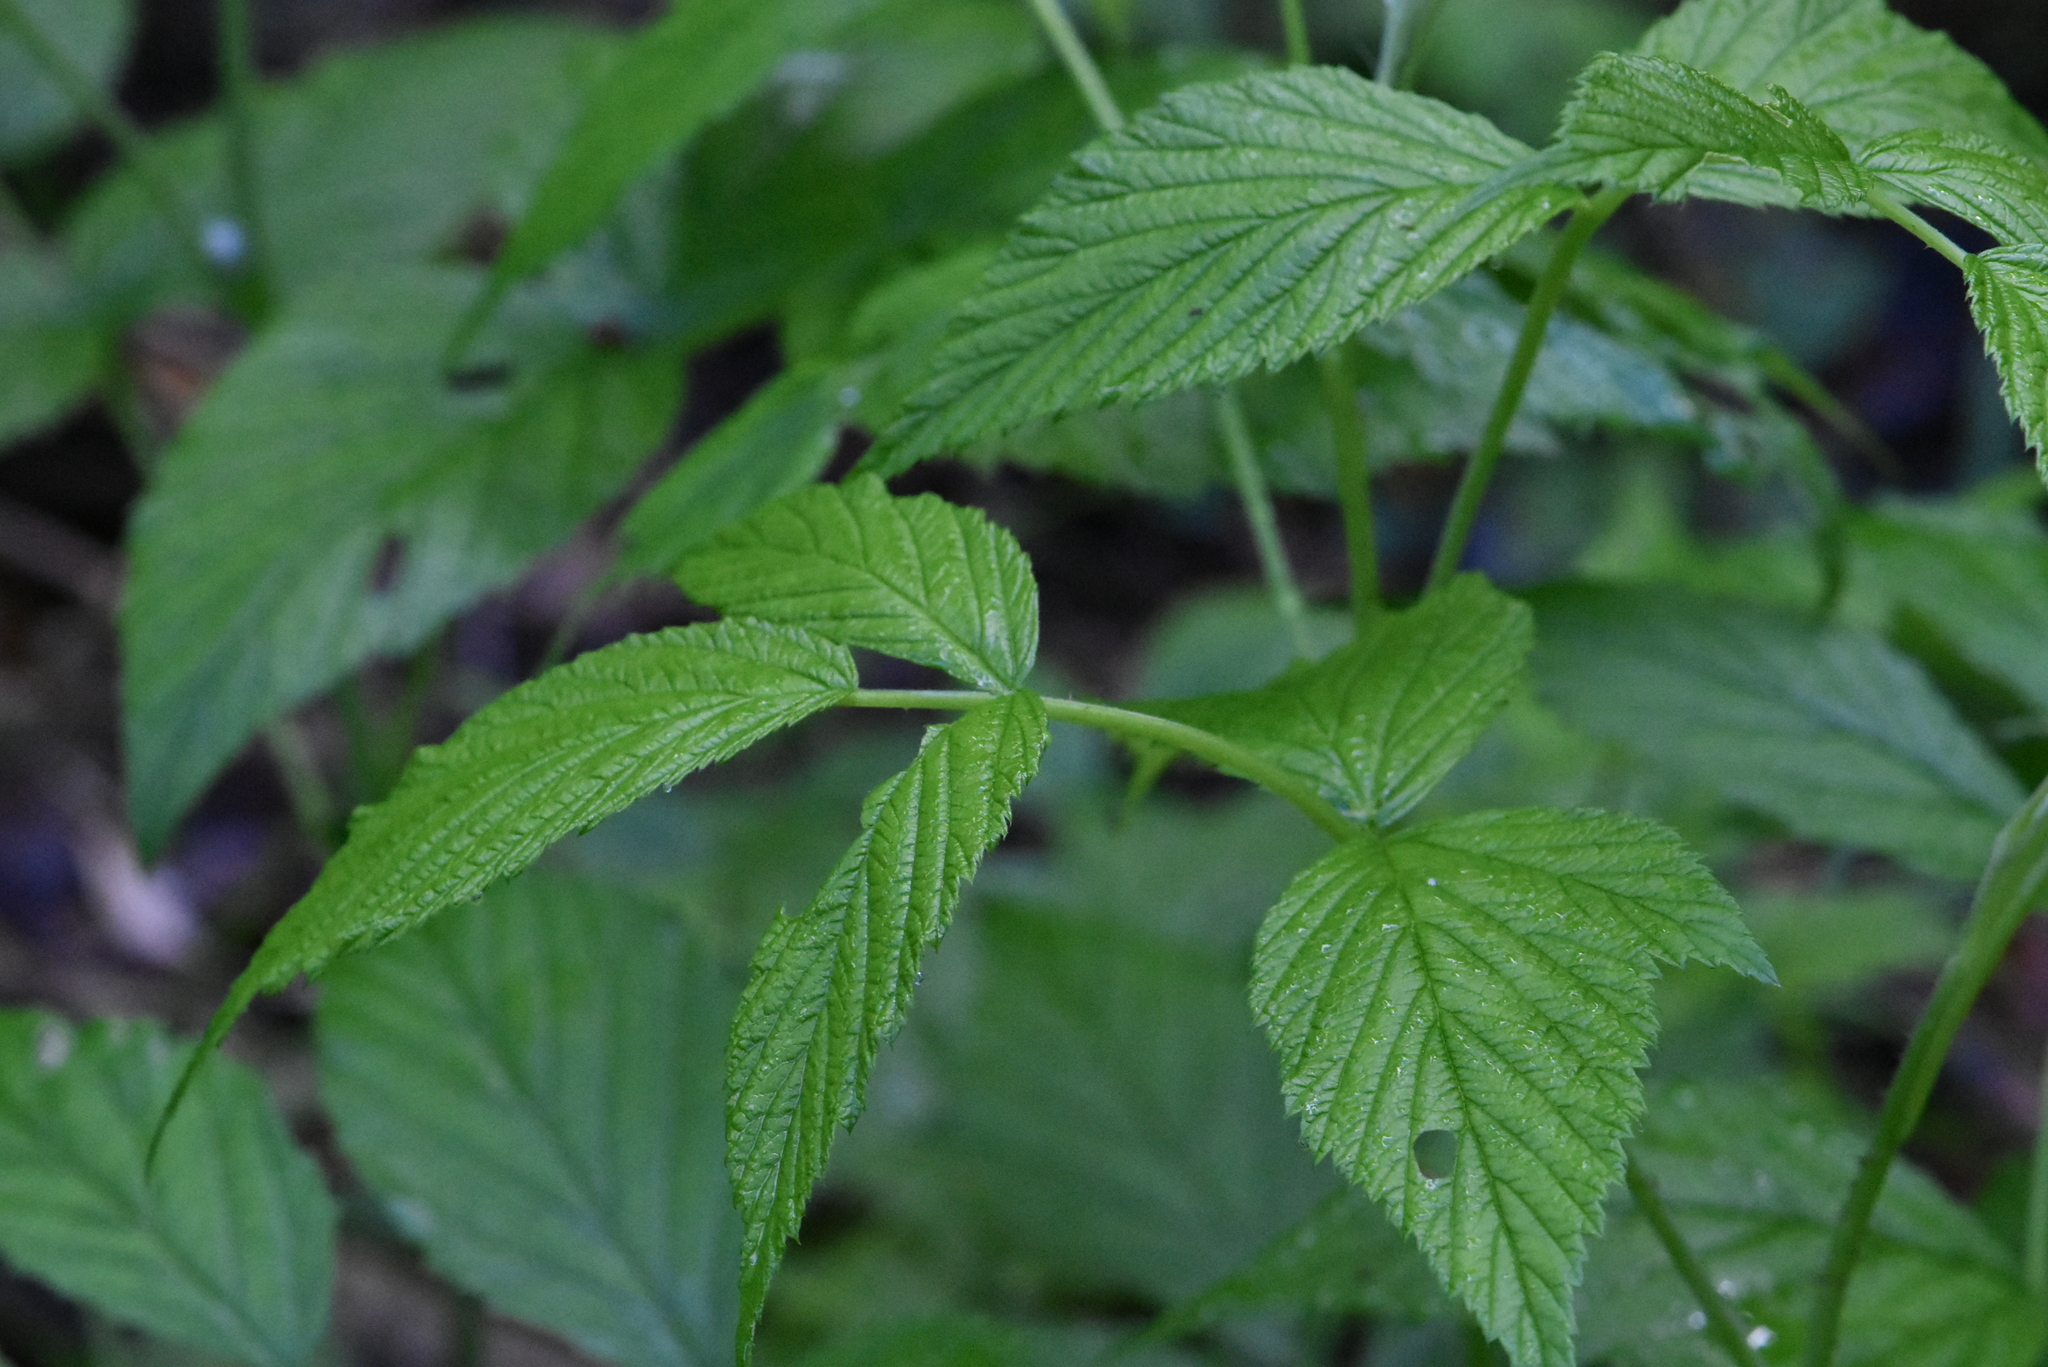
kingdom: Plantae
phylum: Tracheophyta
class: Magnoliopsida
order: Rosales
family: Rosaceae
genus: Rubus
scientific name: Rubus idaeus
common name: Raspberry
